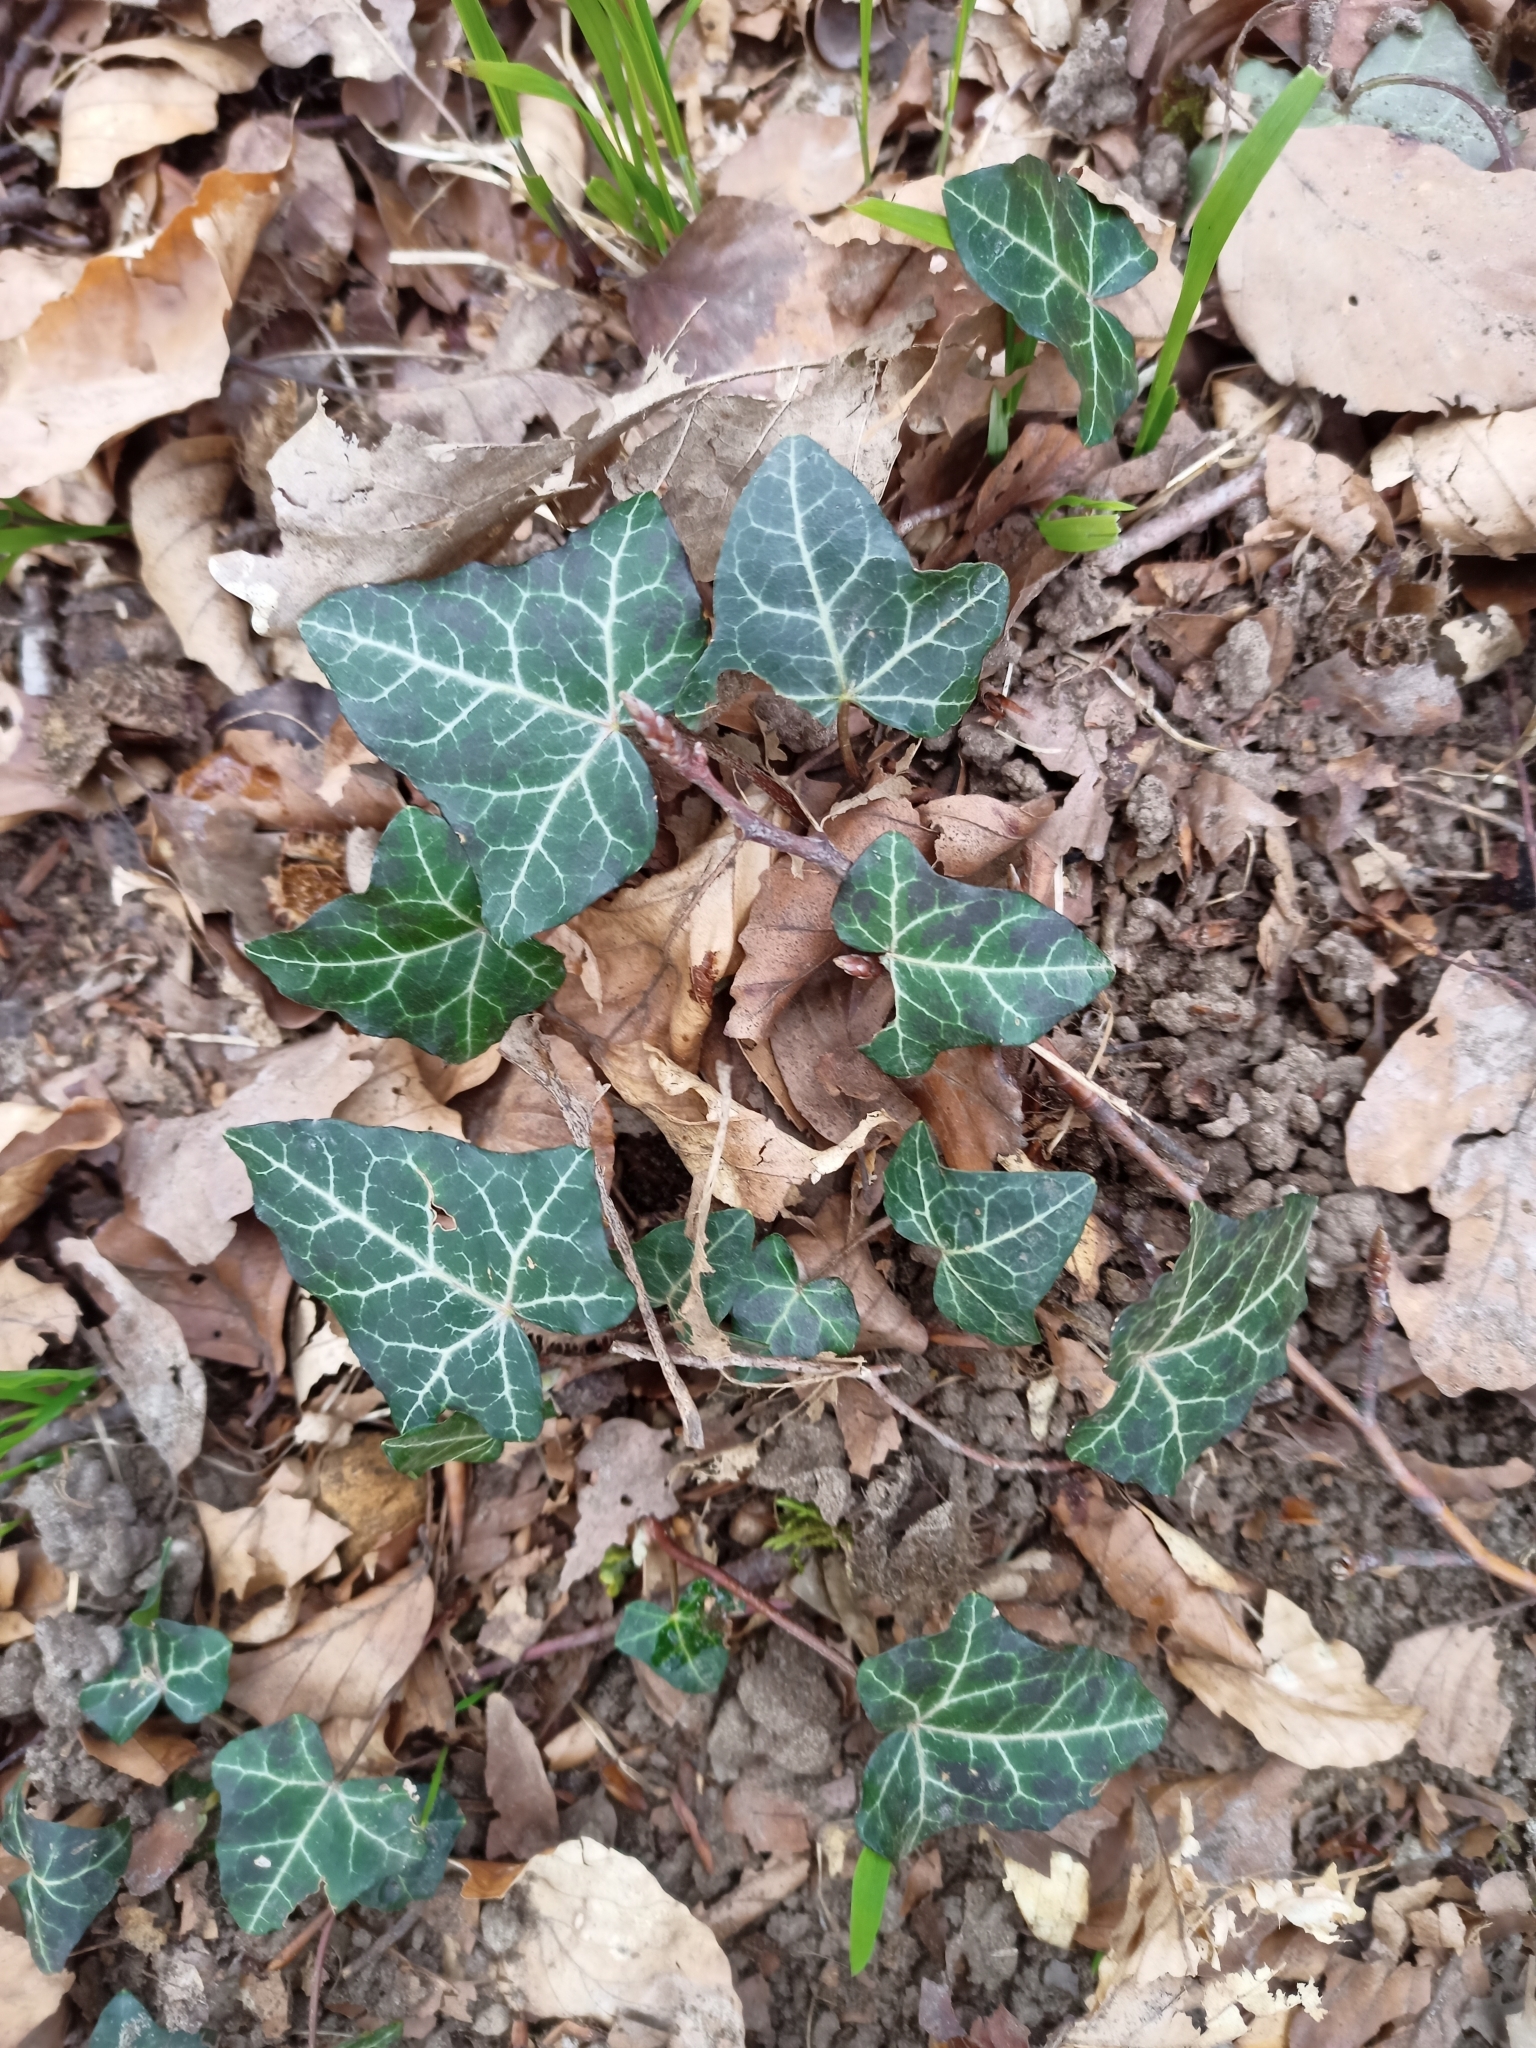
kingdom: Plantae
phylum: Tracheophyta
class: Magnoliopsida
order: Apiales
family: Araliaceae
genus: Hedera
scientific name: Hedera helix
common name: Ivy
